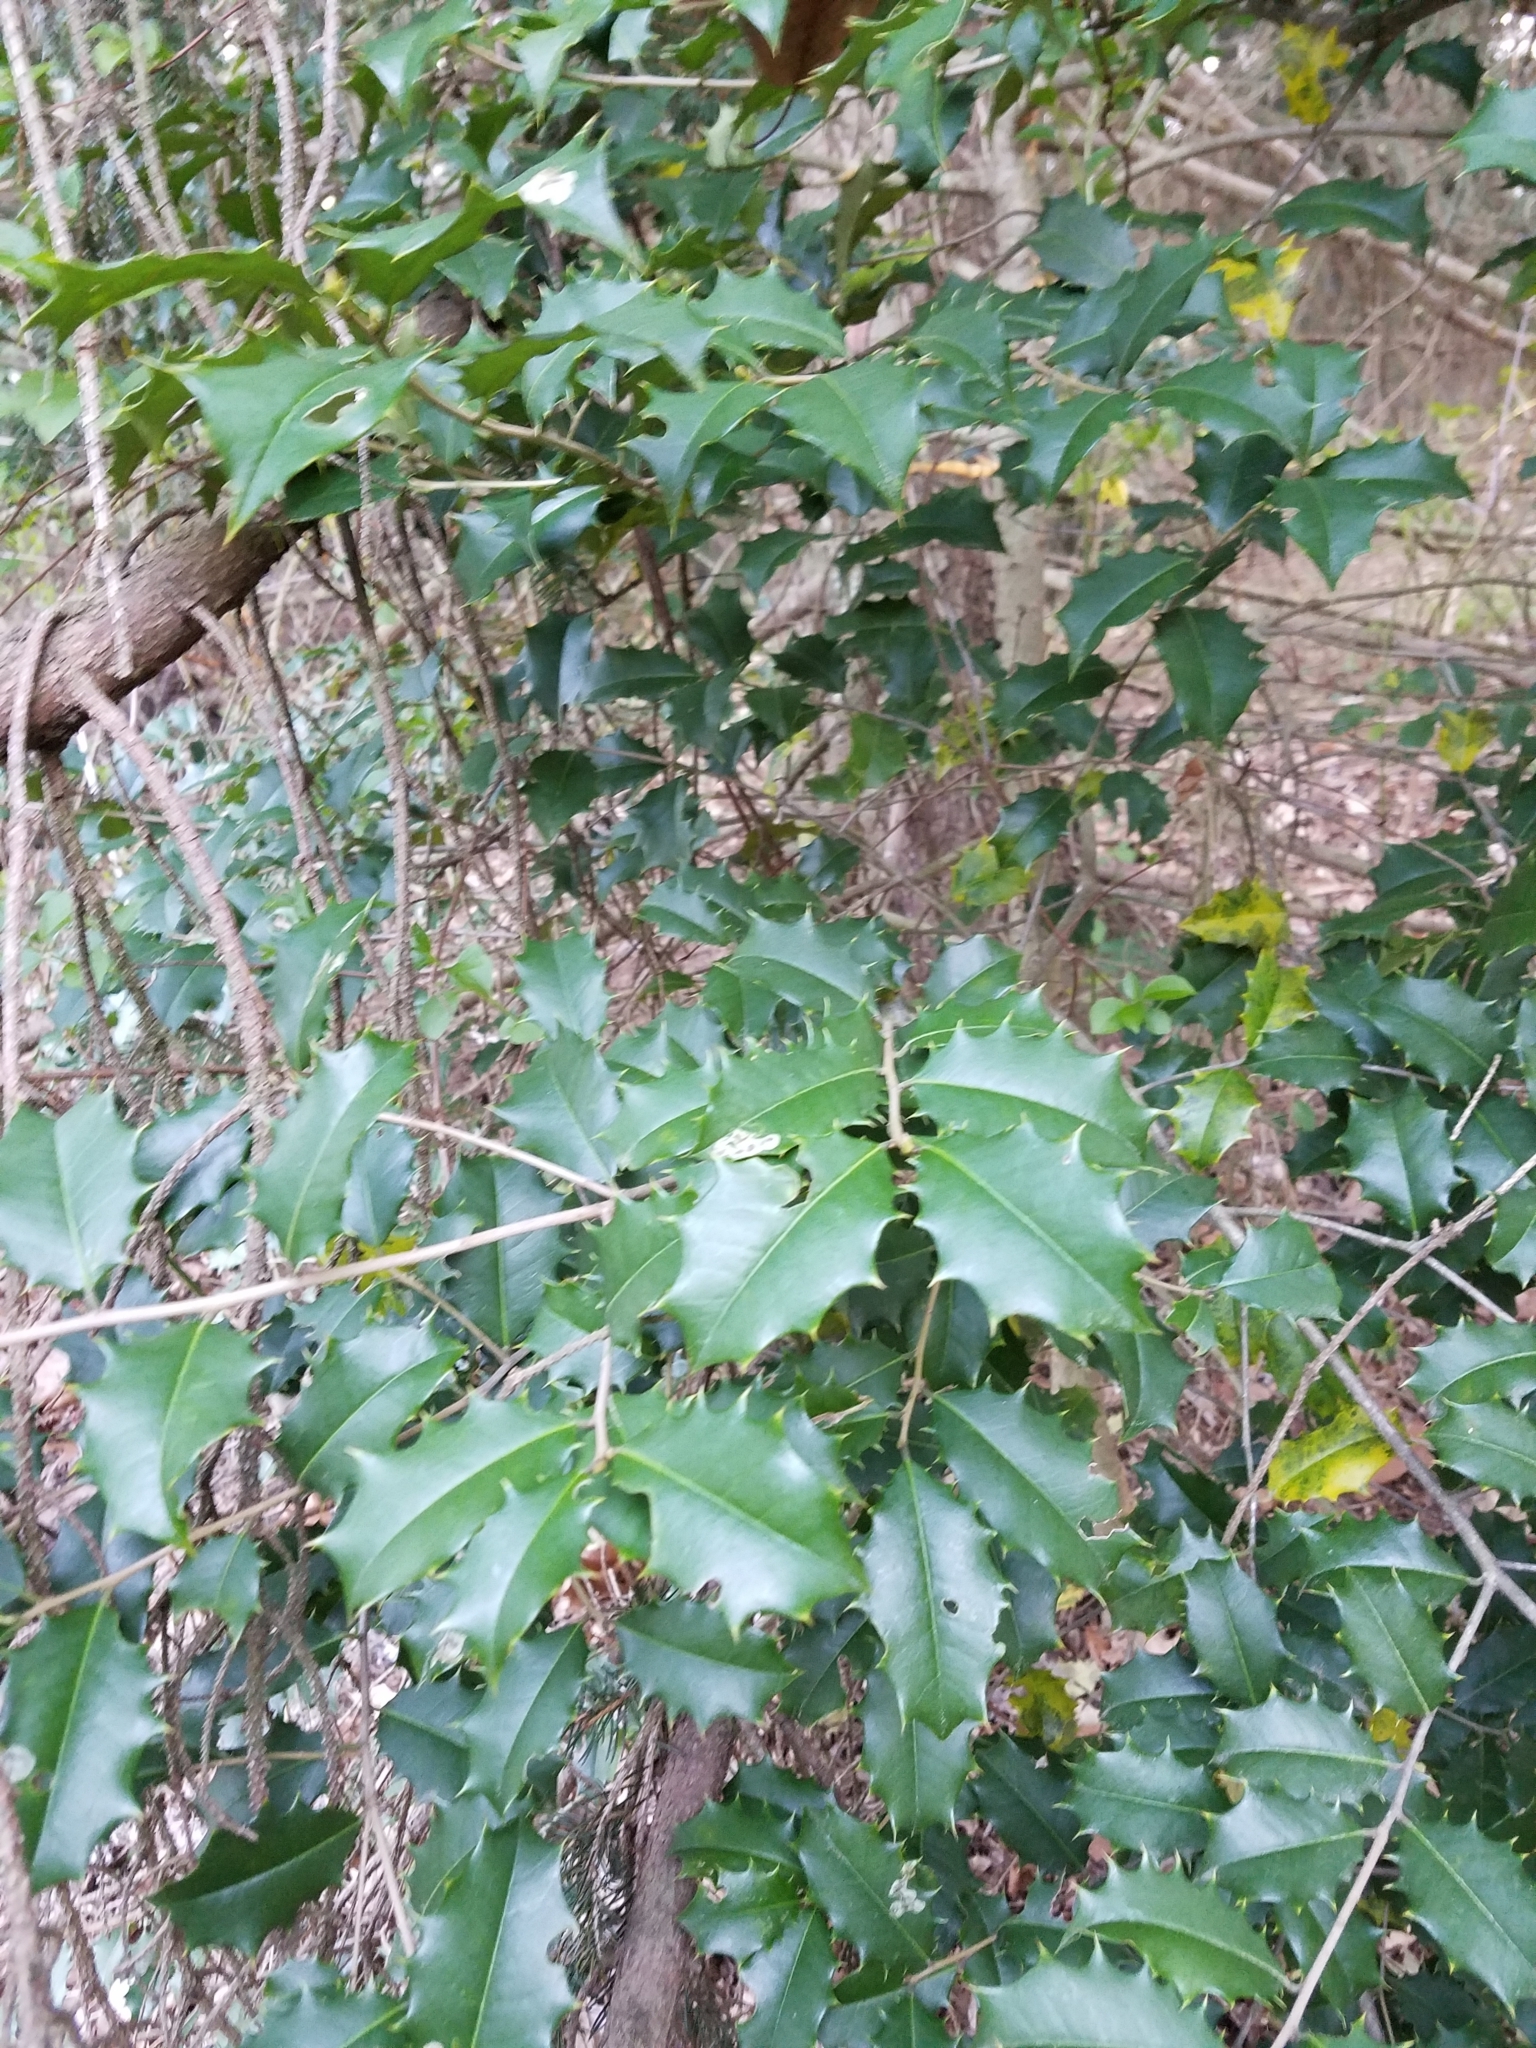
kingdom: Plantae
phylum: Tracheophyta
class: Magnoliopsida
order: Aquifoliales
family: Aquifoliaceae
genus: Ilex
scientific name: Ilex opaca
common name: American holly
